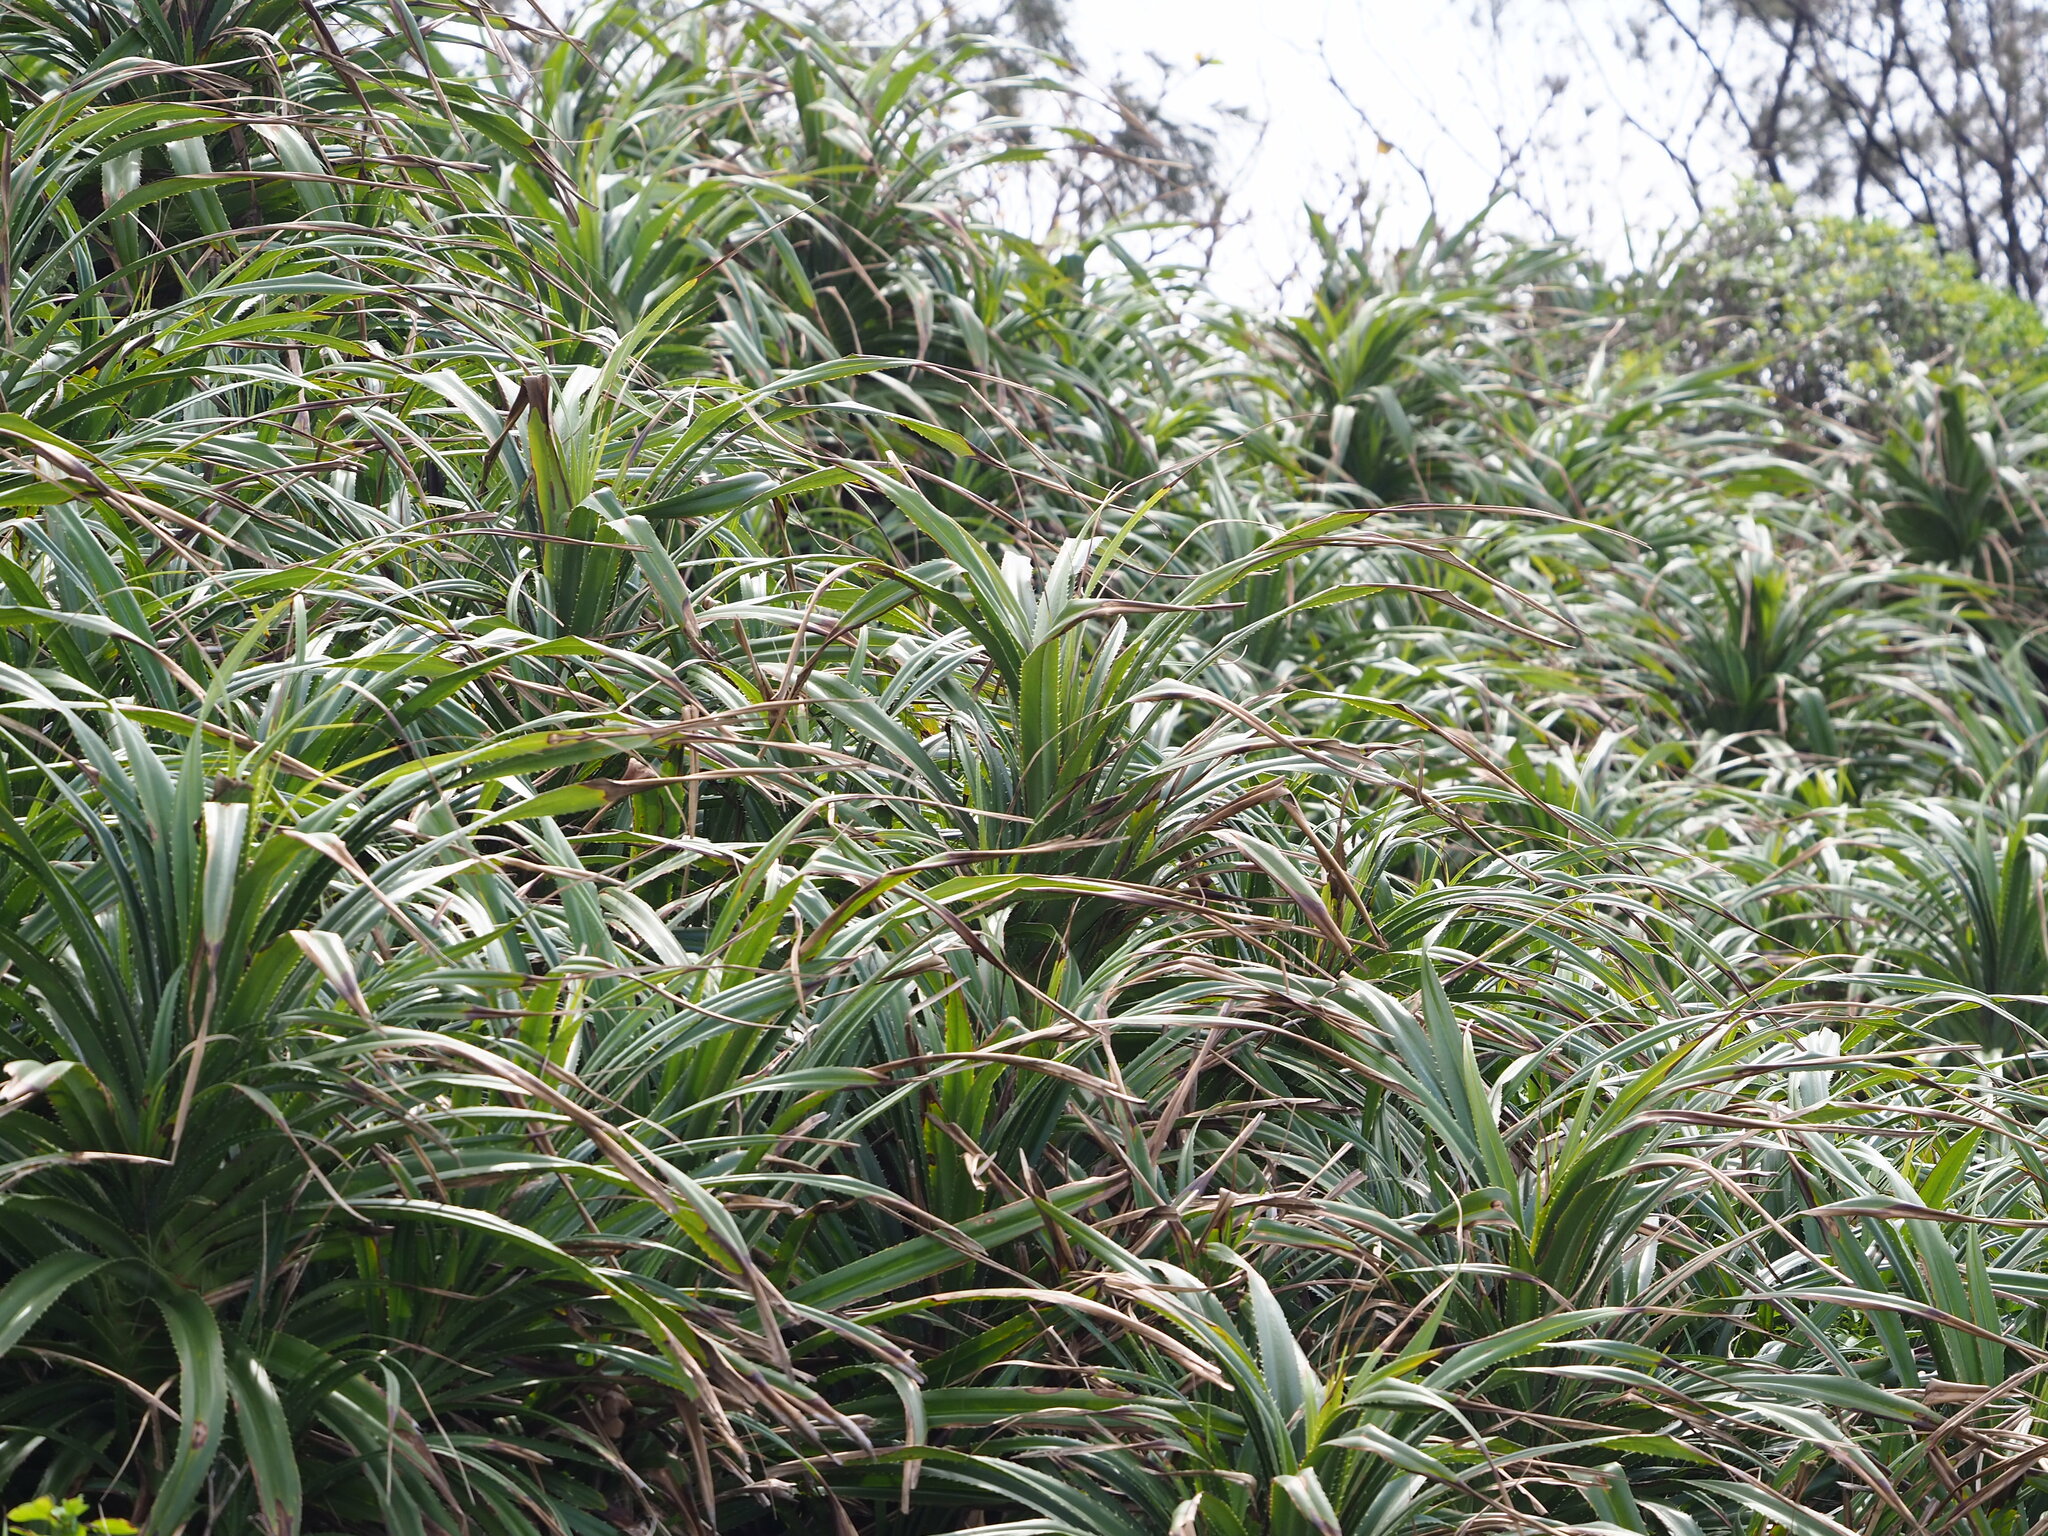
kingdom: Plantae
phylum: Tracheophyta
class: Liliopsida
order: Pandanales
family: Pandanaceae
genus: Pandanus
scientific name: Pandanus odorifer
